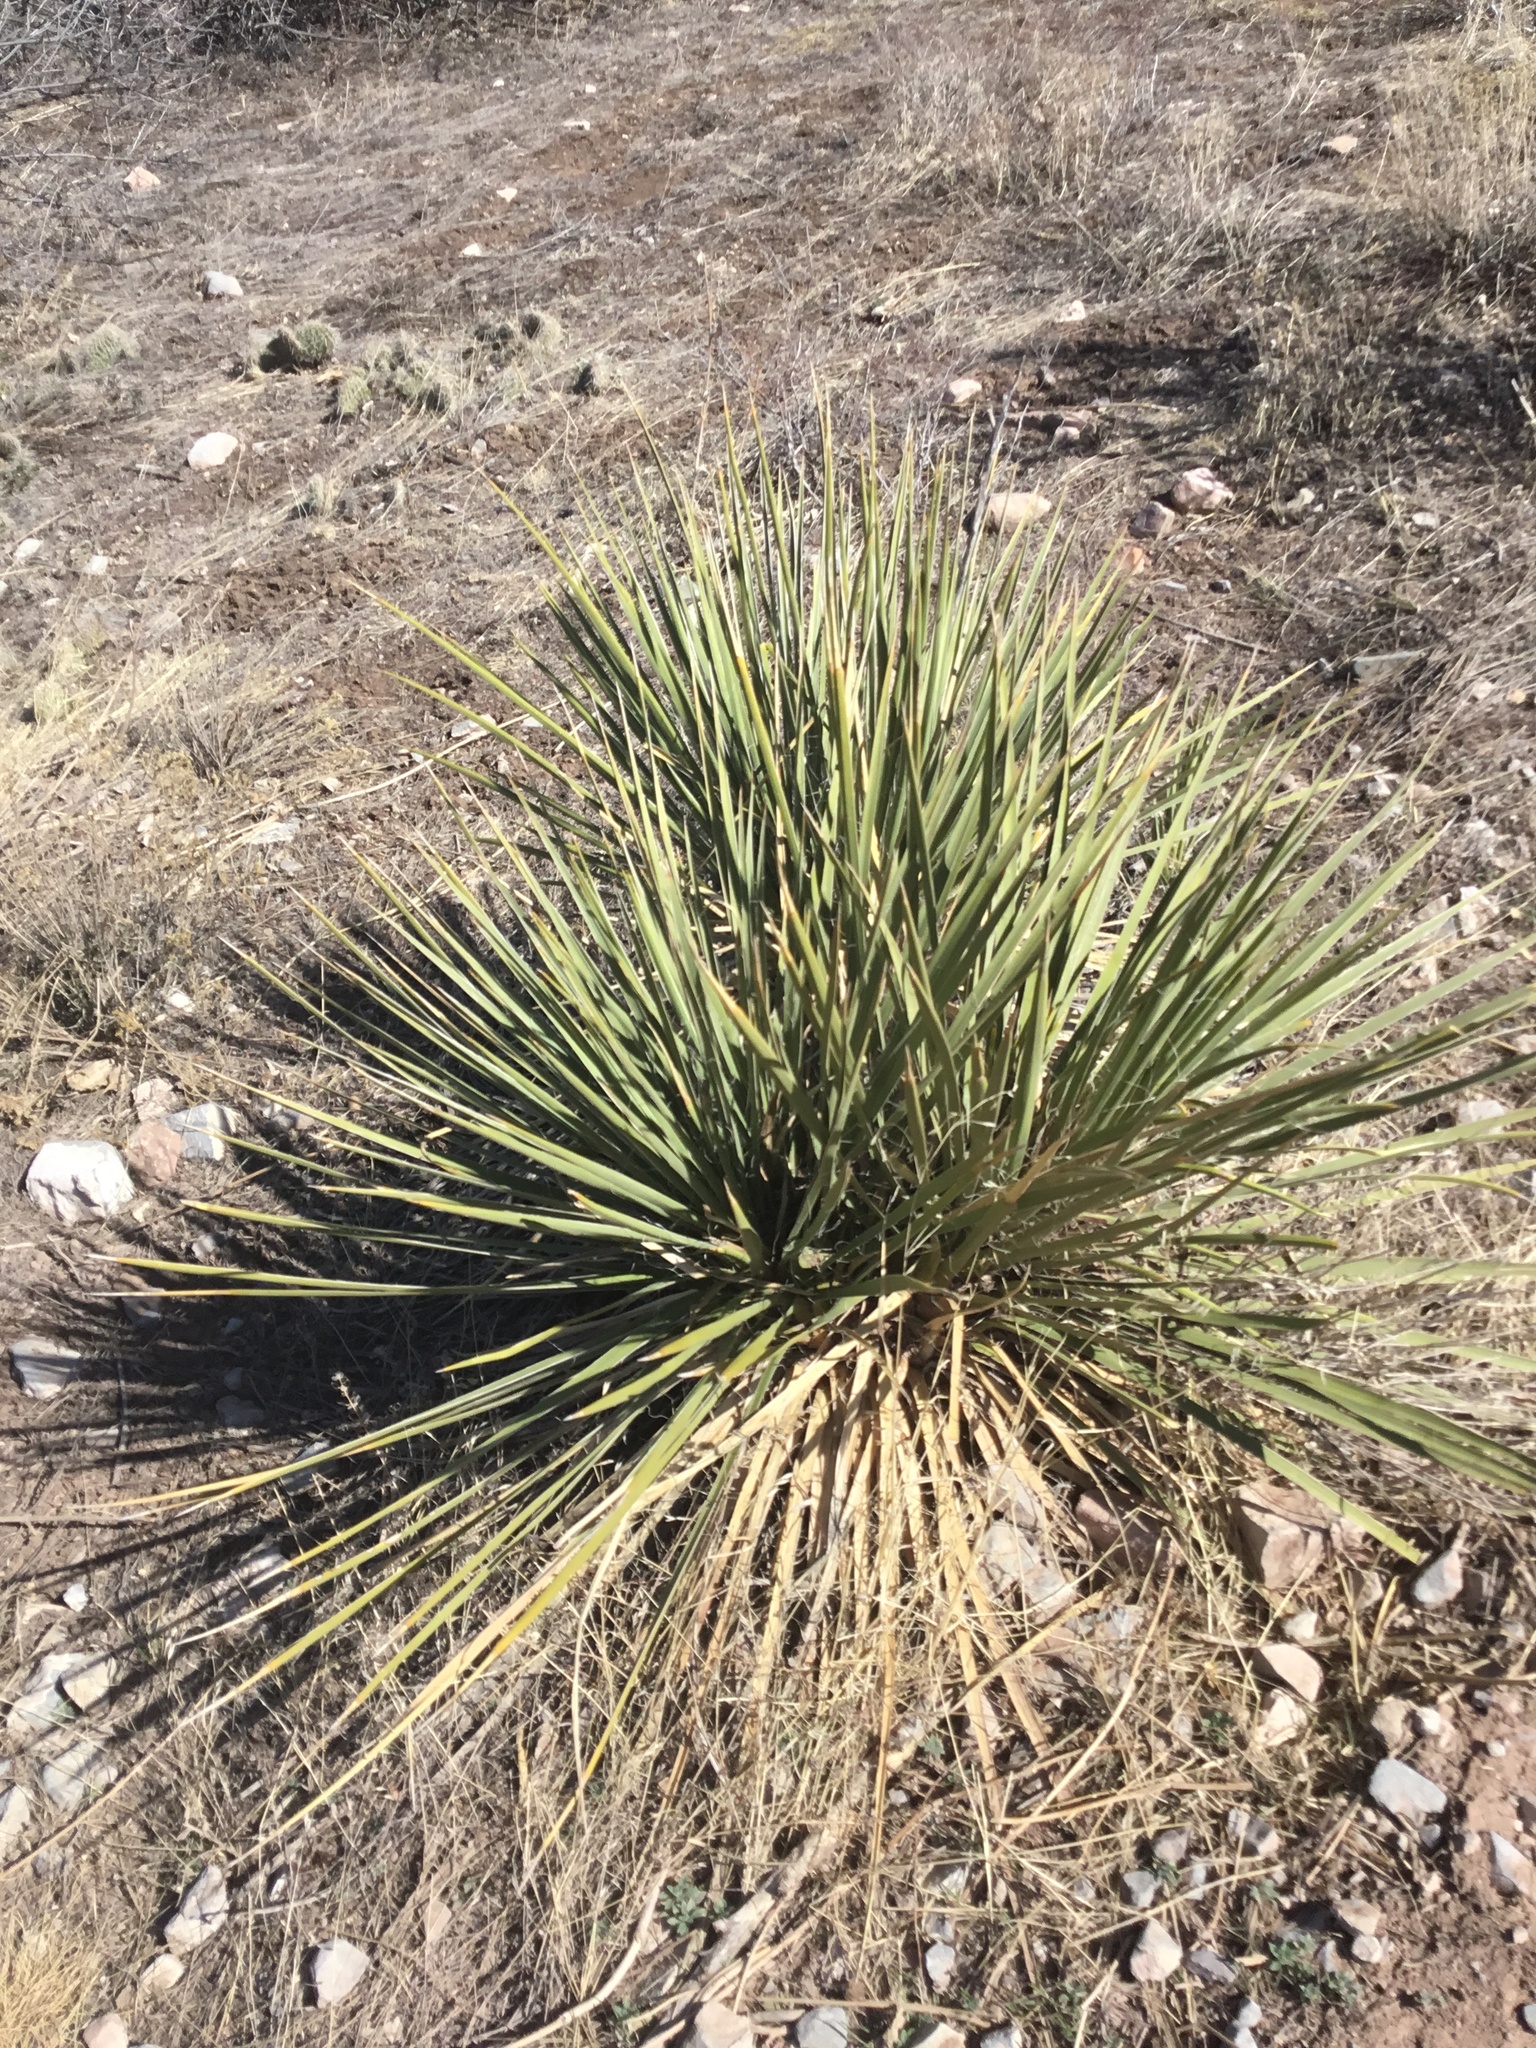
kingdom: Plantae
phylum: Tracheophyta
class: Liliopsida
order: Asparagales
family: Asparagaceae
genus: Yucca
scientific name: Yucca glauca
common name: Great plains yucca
